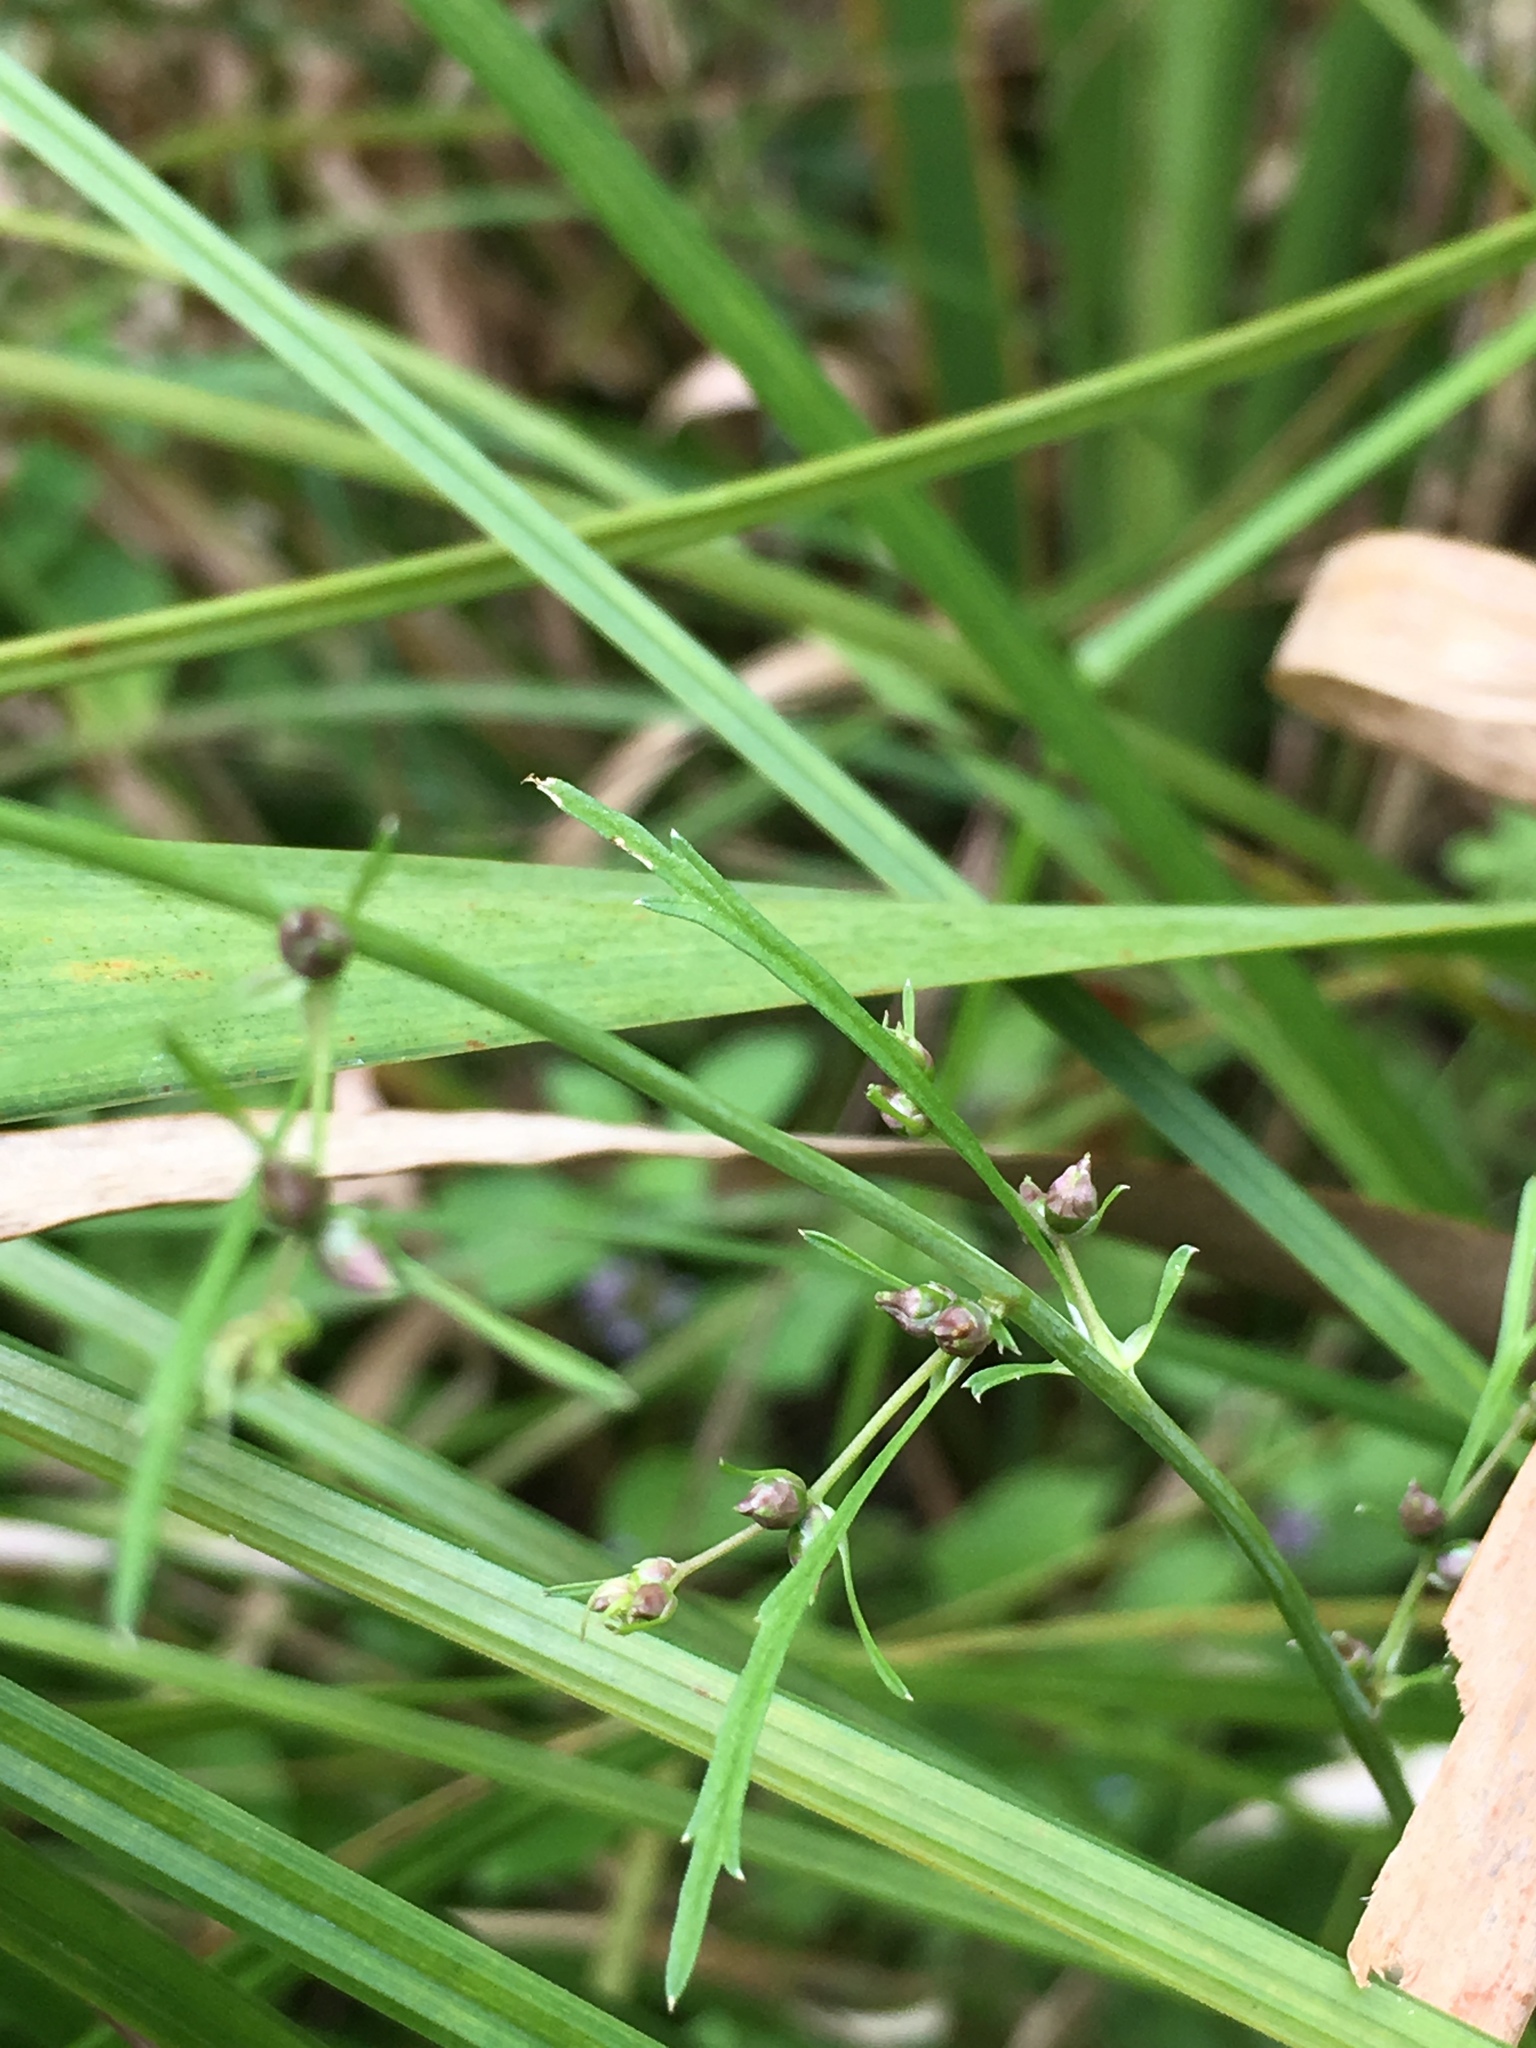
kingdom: Plantae
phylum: Tracheophyta
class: Magnoliopsida
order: Apiales
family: Apiaceae
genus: Cicuta
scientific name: Cicuta bulbifera
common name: Bulb-bearing water-hemlock
